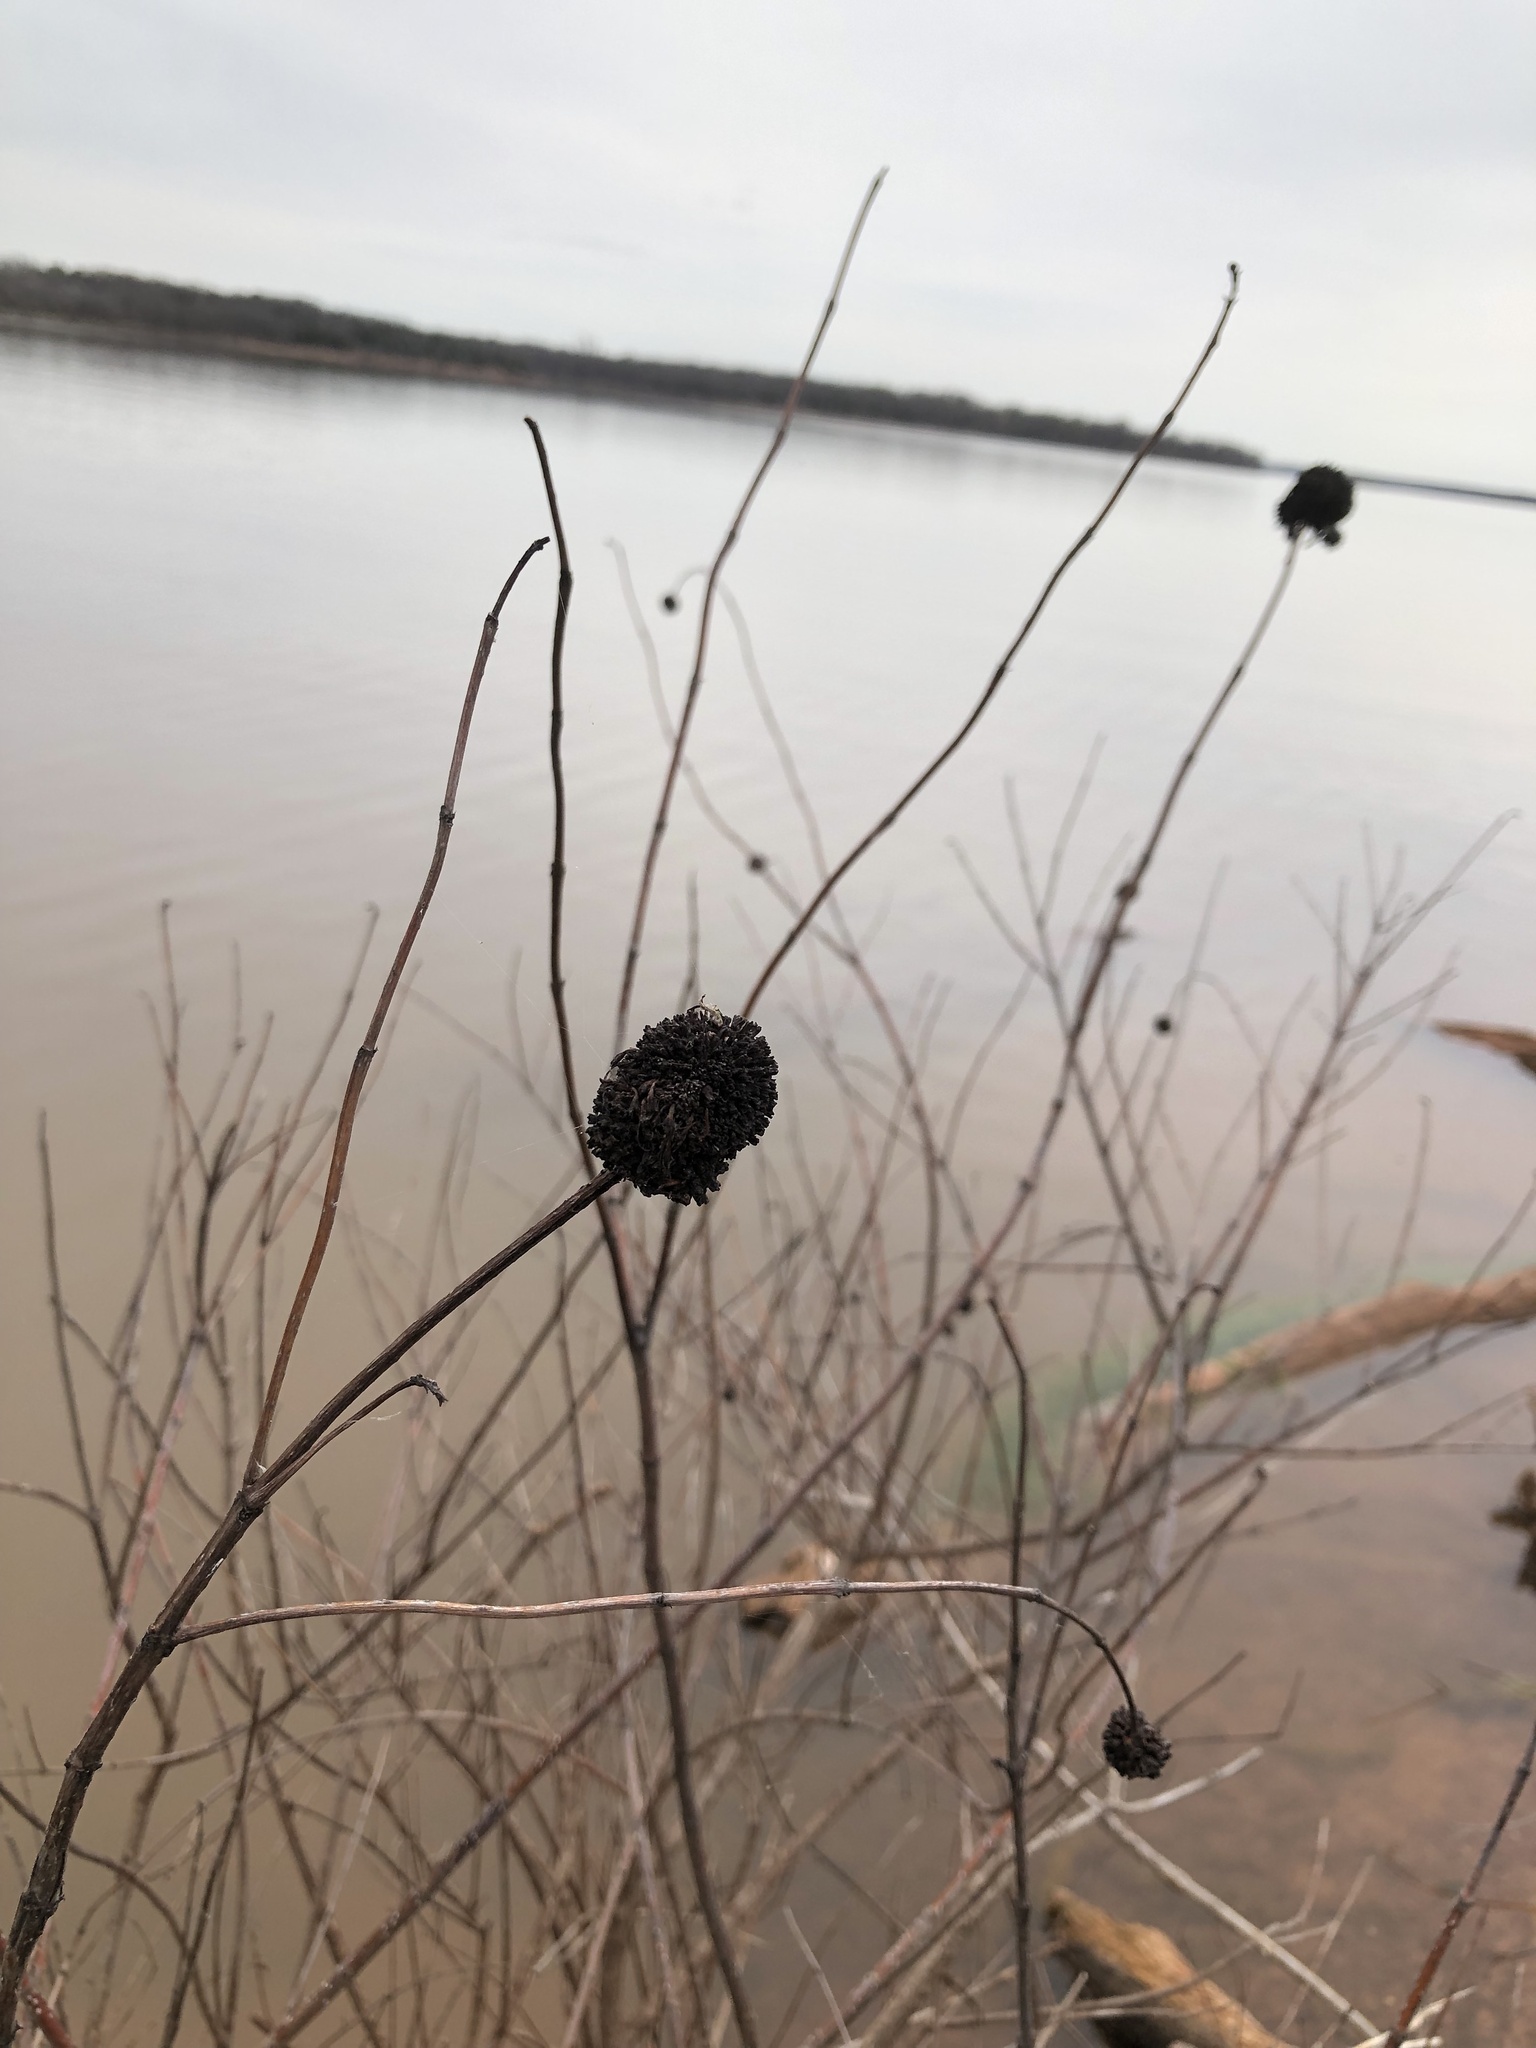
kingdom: Plantae
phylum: Tracheophyta
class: Magnoliopsida
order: Gentianales
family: Rubiaceae
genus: Cephalanthus
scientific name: Cephalanthus occidentalis
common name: Button-willow
